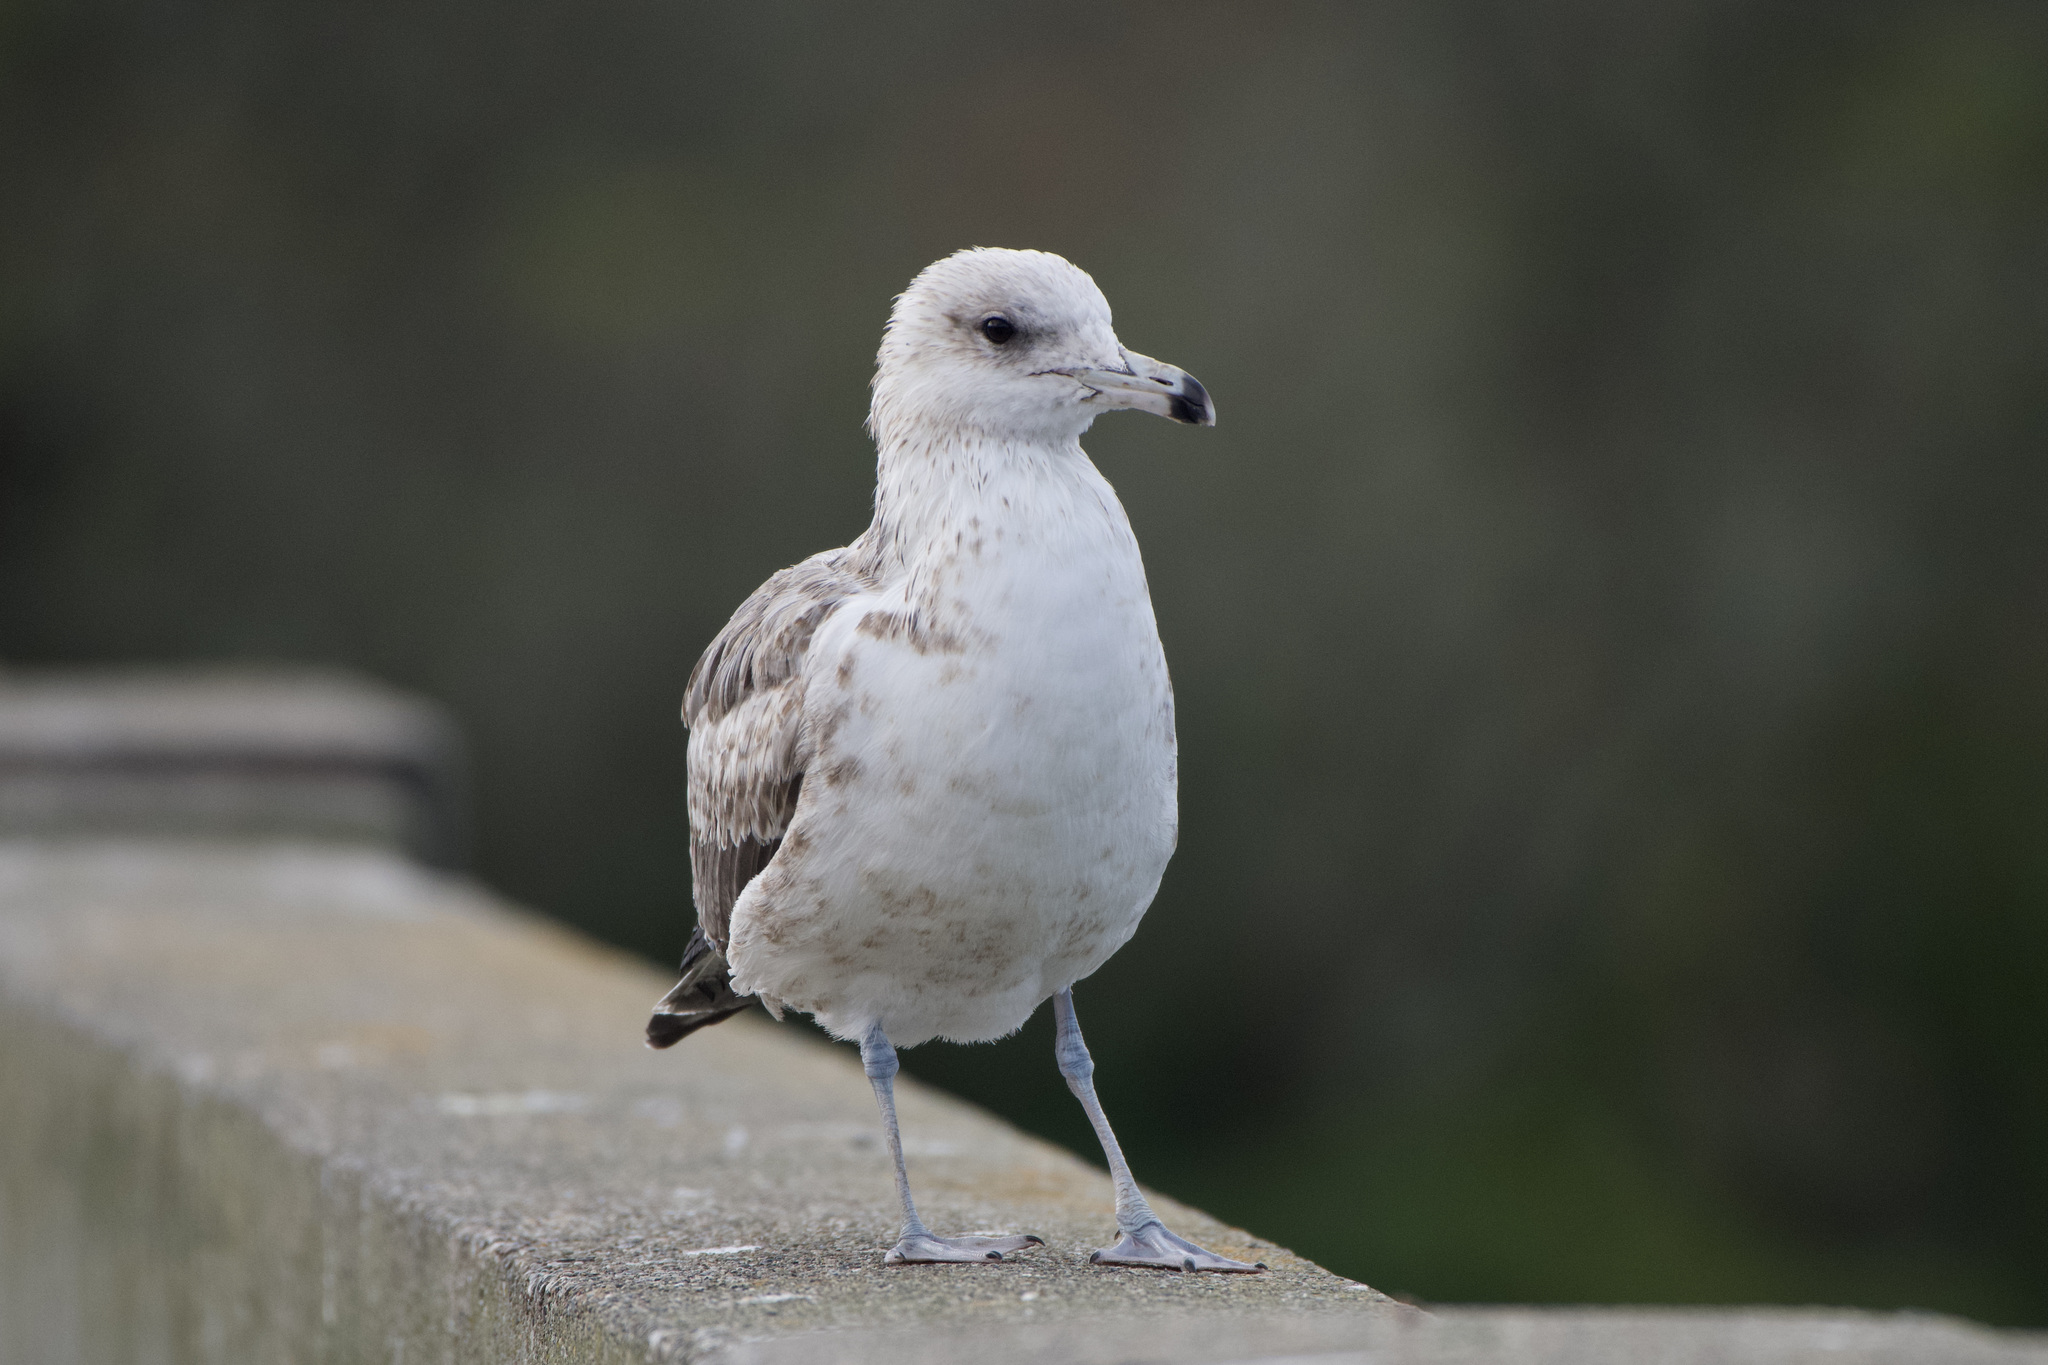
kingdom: Animalia
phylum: Chordata
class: Aves
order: Charadriiformes
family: Laridae
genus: Larus
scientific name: Larus californicus
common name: California gull
